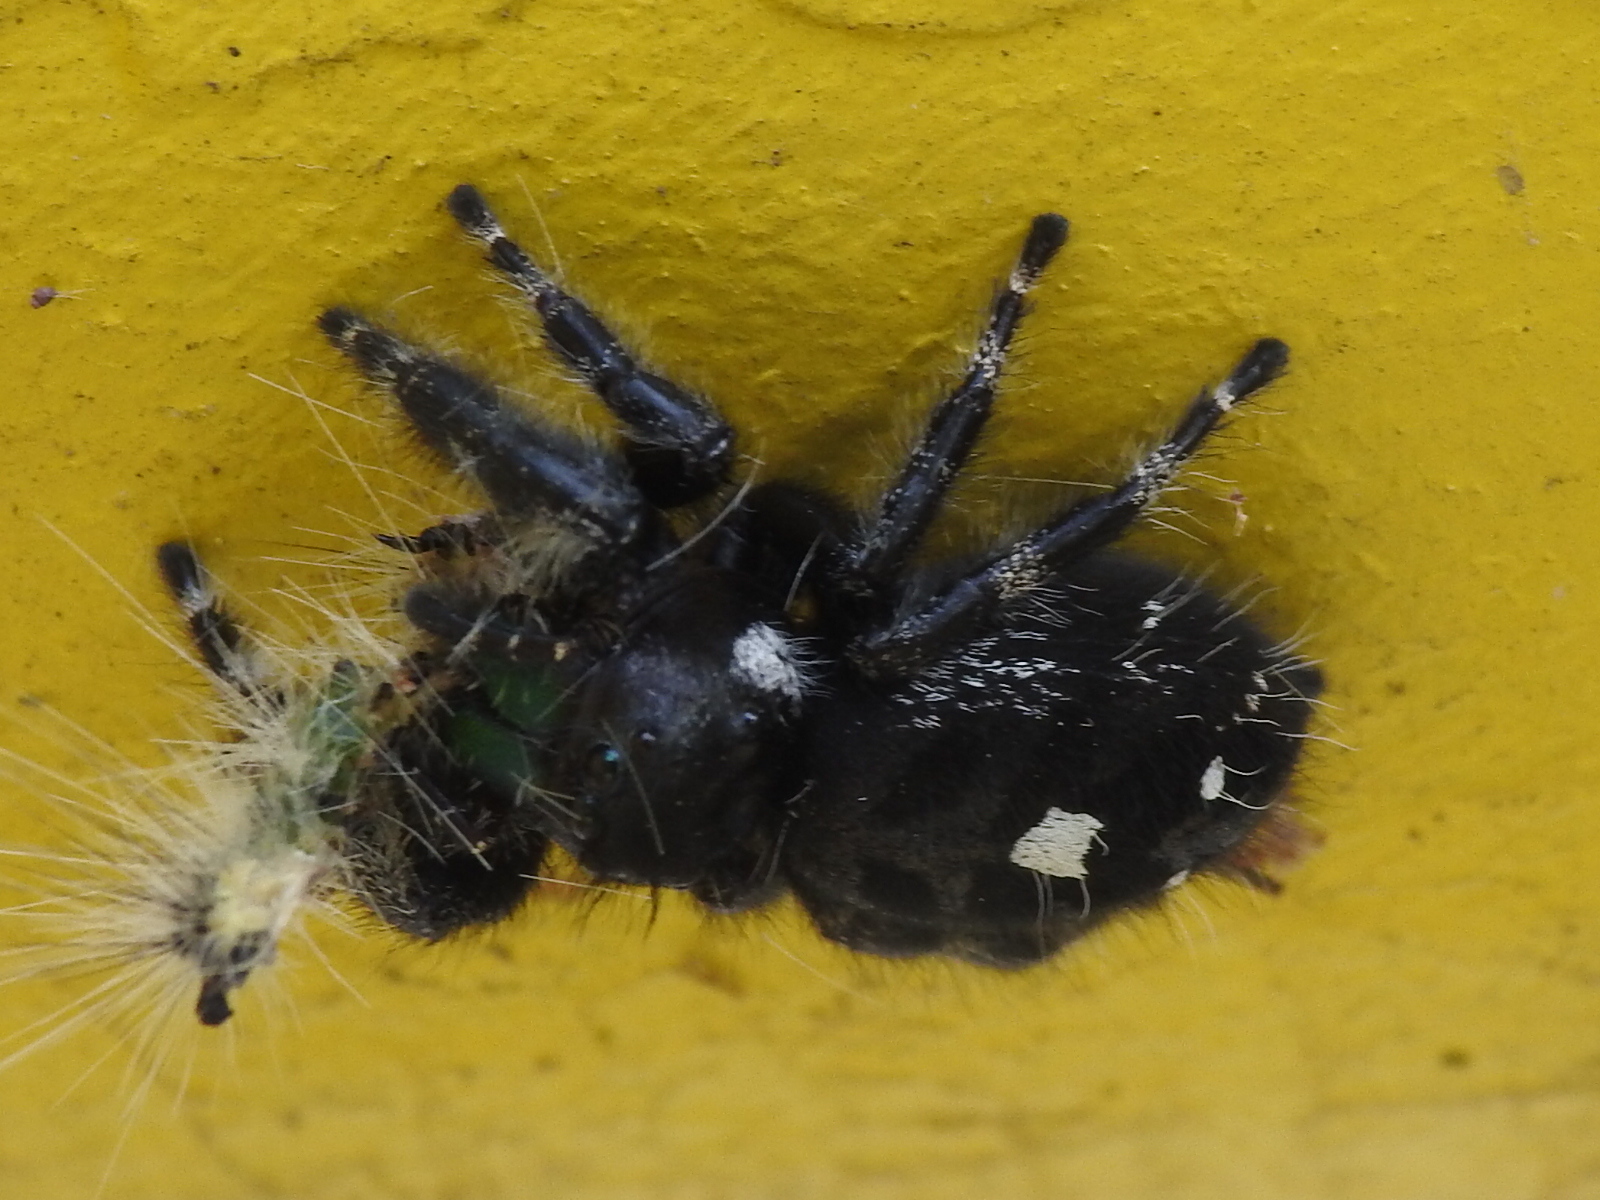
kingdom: Animalia
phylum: Arthropoda
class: Arachnida
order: Araneae
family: Salticidae
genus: Phidippus
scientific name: Phidippus audax
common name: Bold jumper
